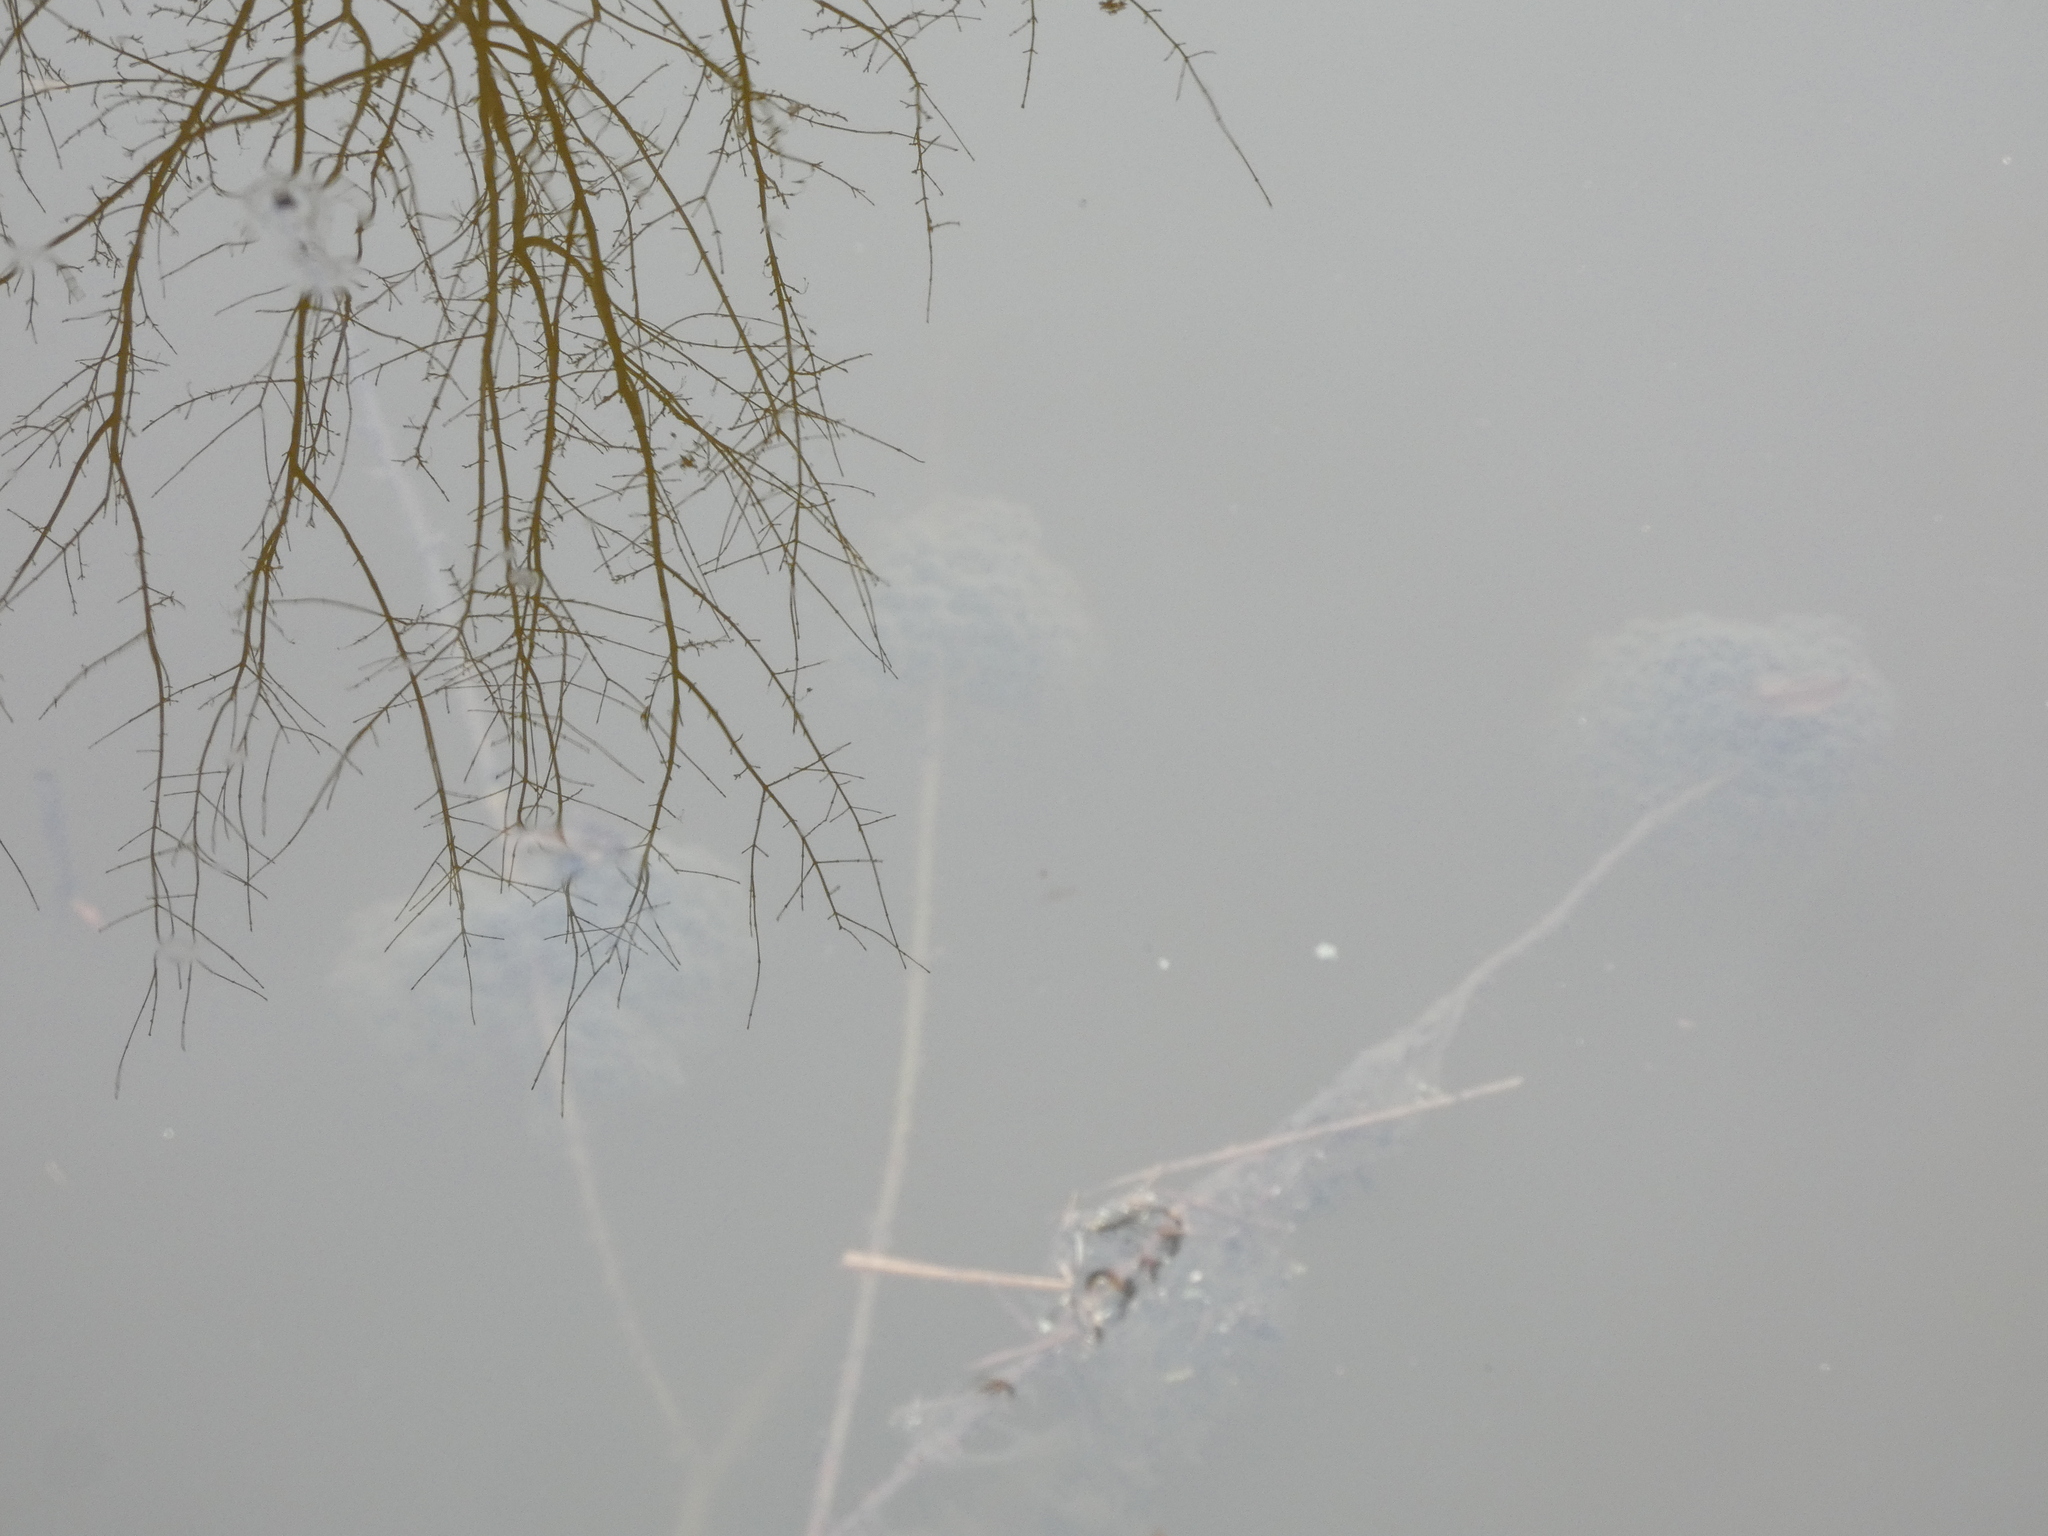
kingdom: Animalia
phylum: Chordata
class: Amphibia
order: Anura
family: Ranidae
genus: Rana
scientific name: Rana dalmatina
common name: Agile frog
